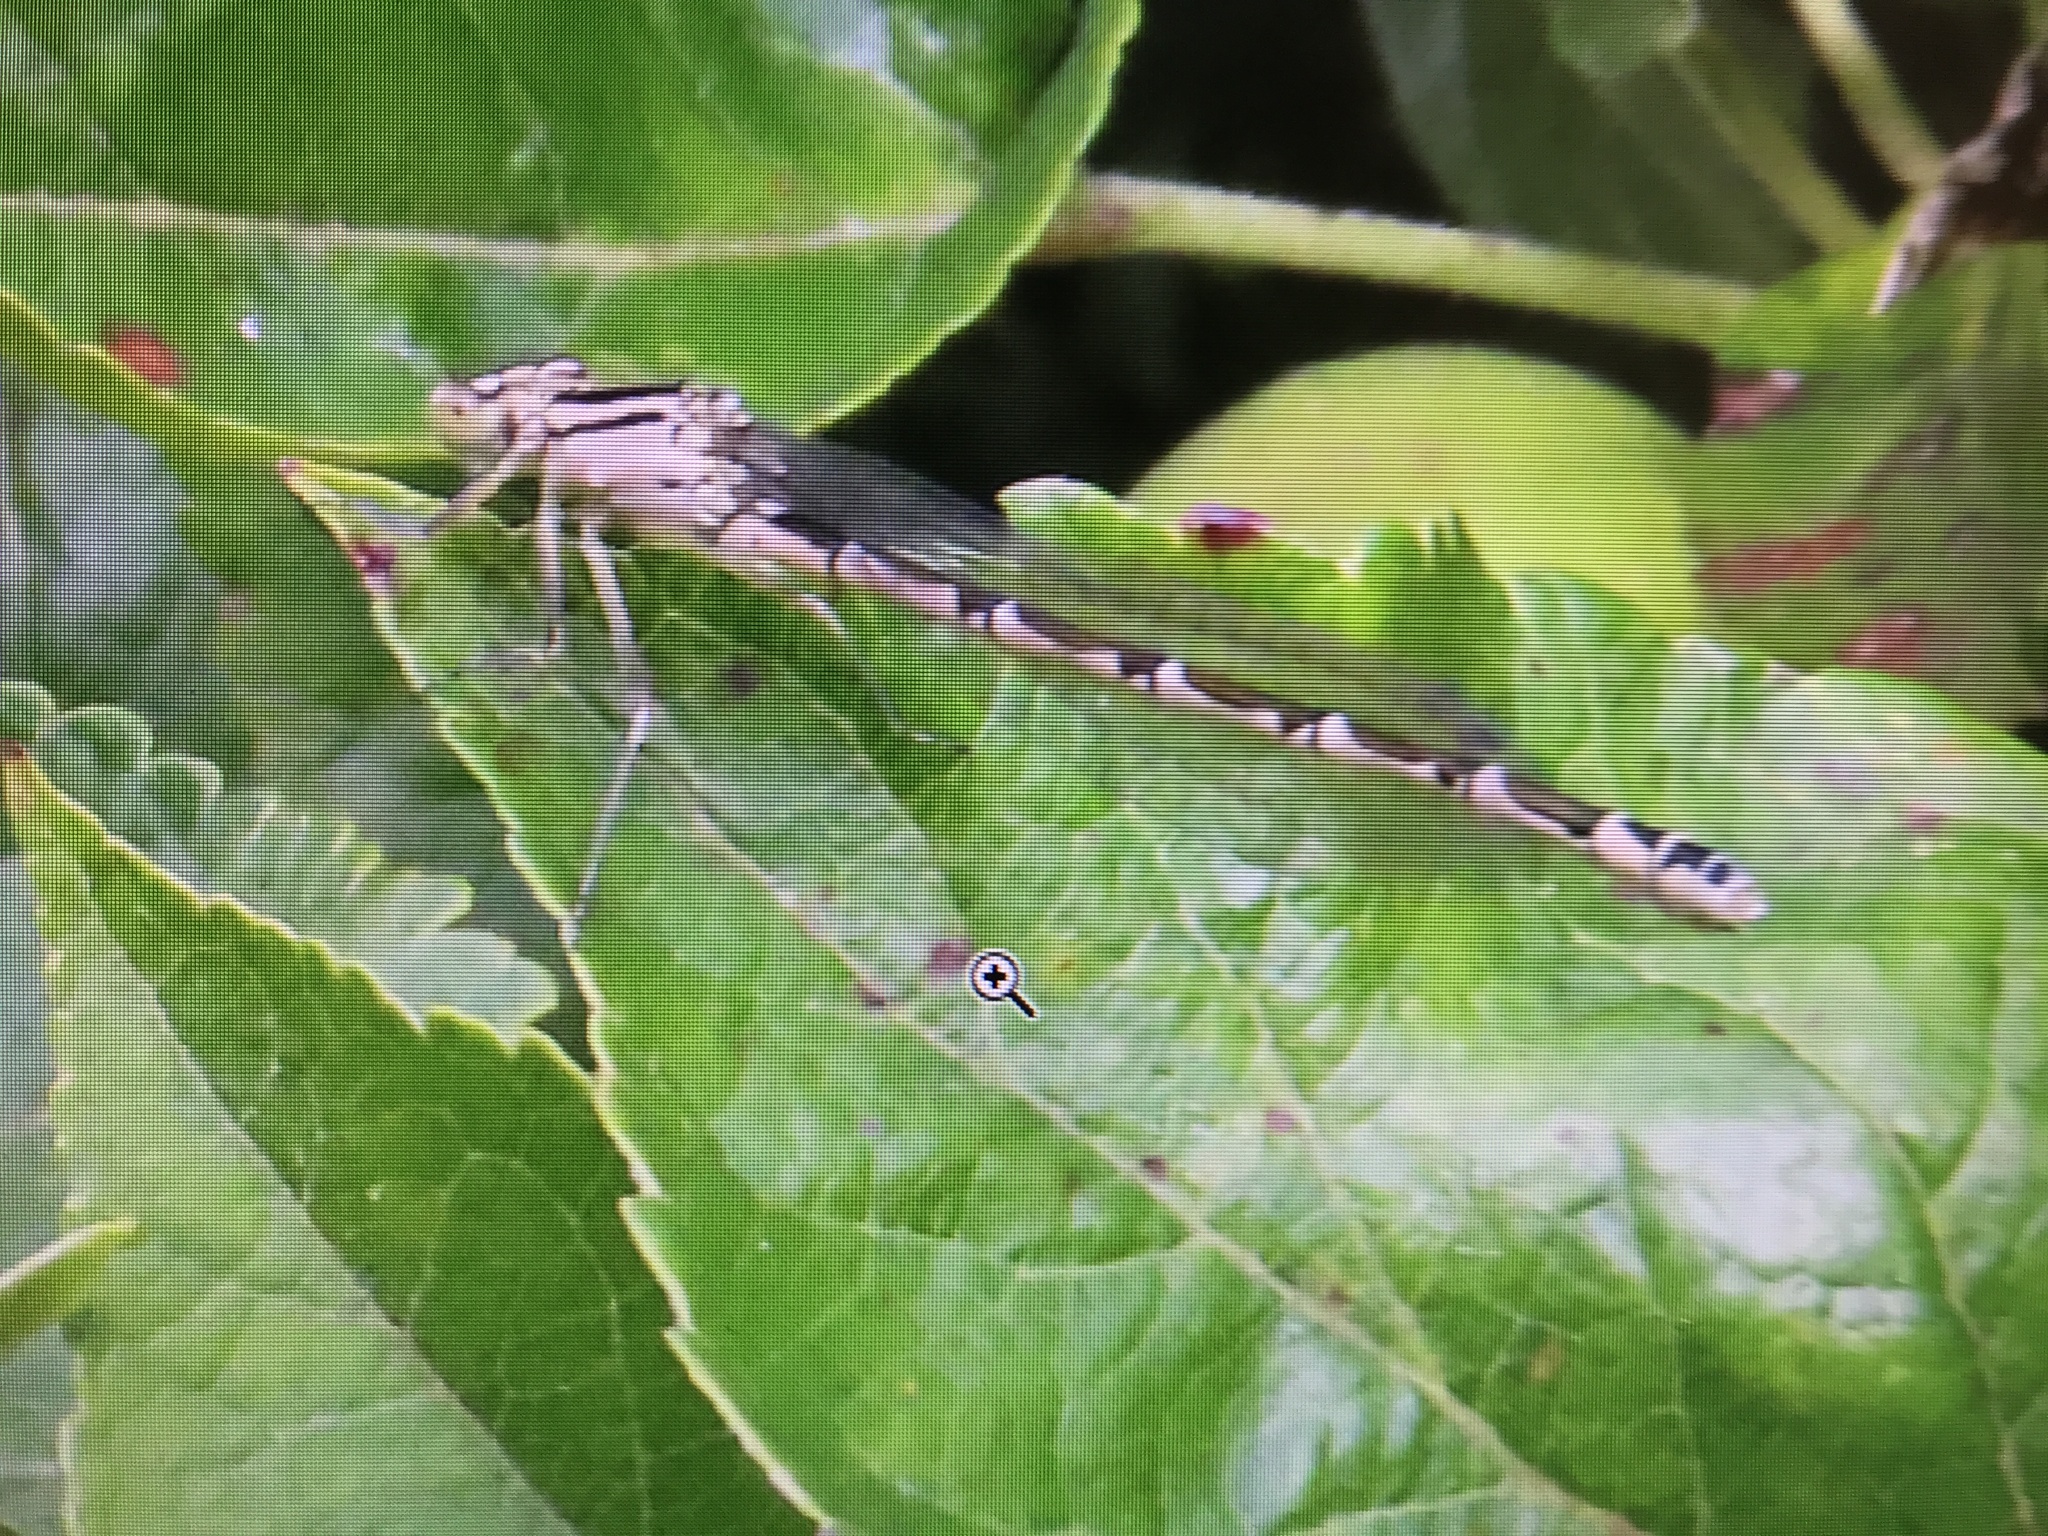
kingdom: Animalia
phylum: Arthropoda
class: Insecta
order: Odonata
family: Coenagrionidae
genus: Enallagma
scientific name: Enallagma cyathigerum
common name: Common blue damselfly
